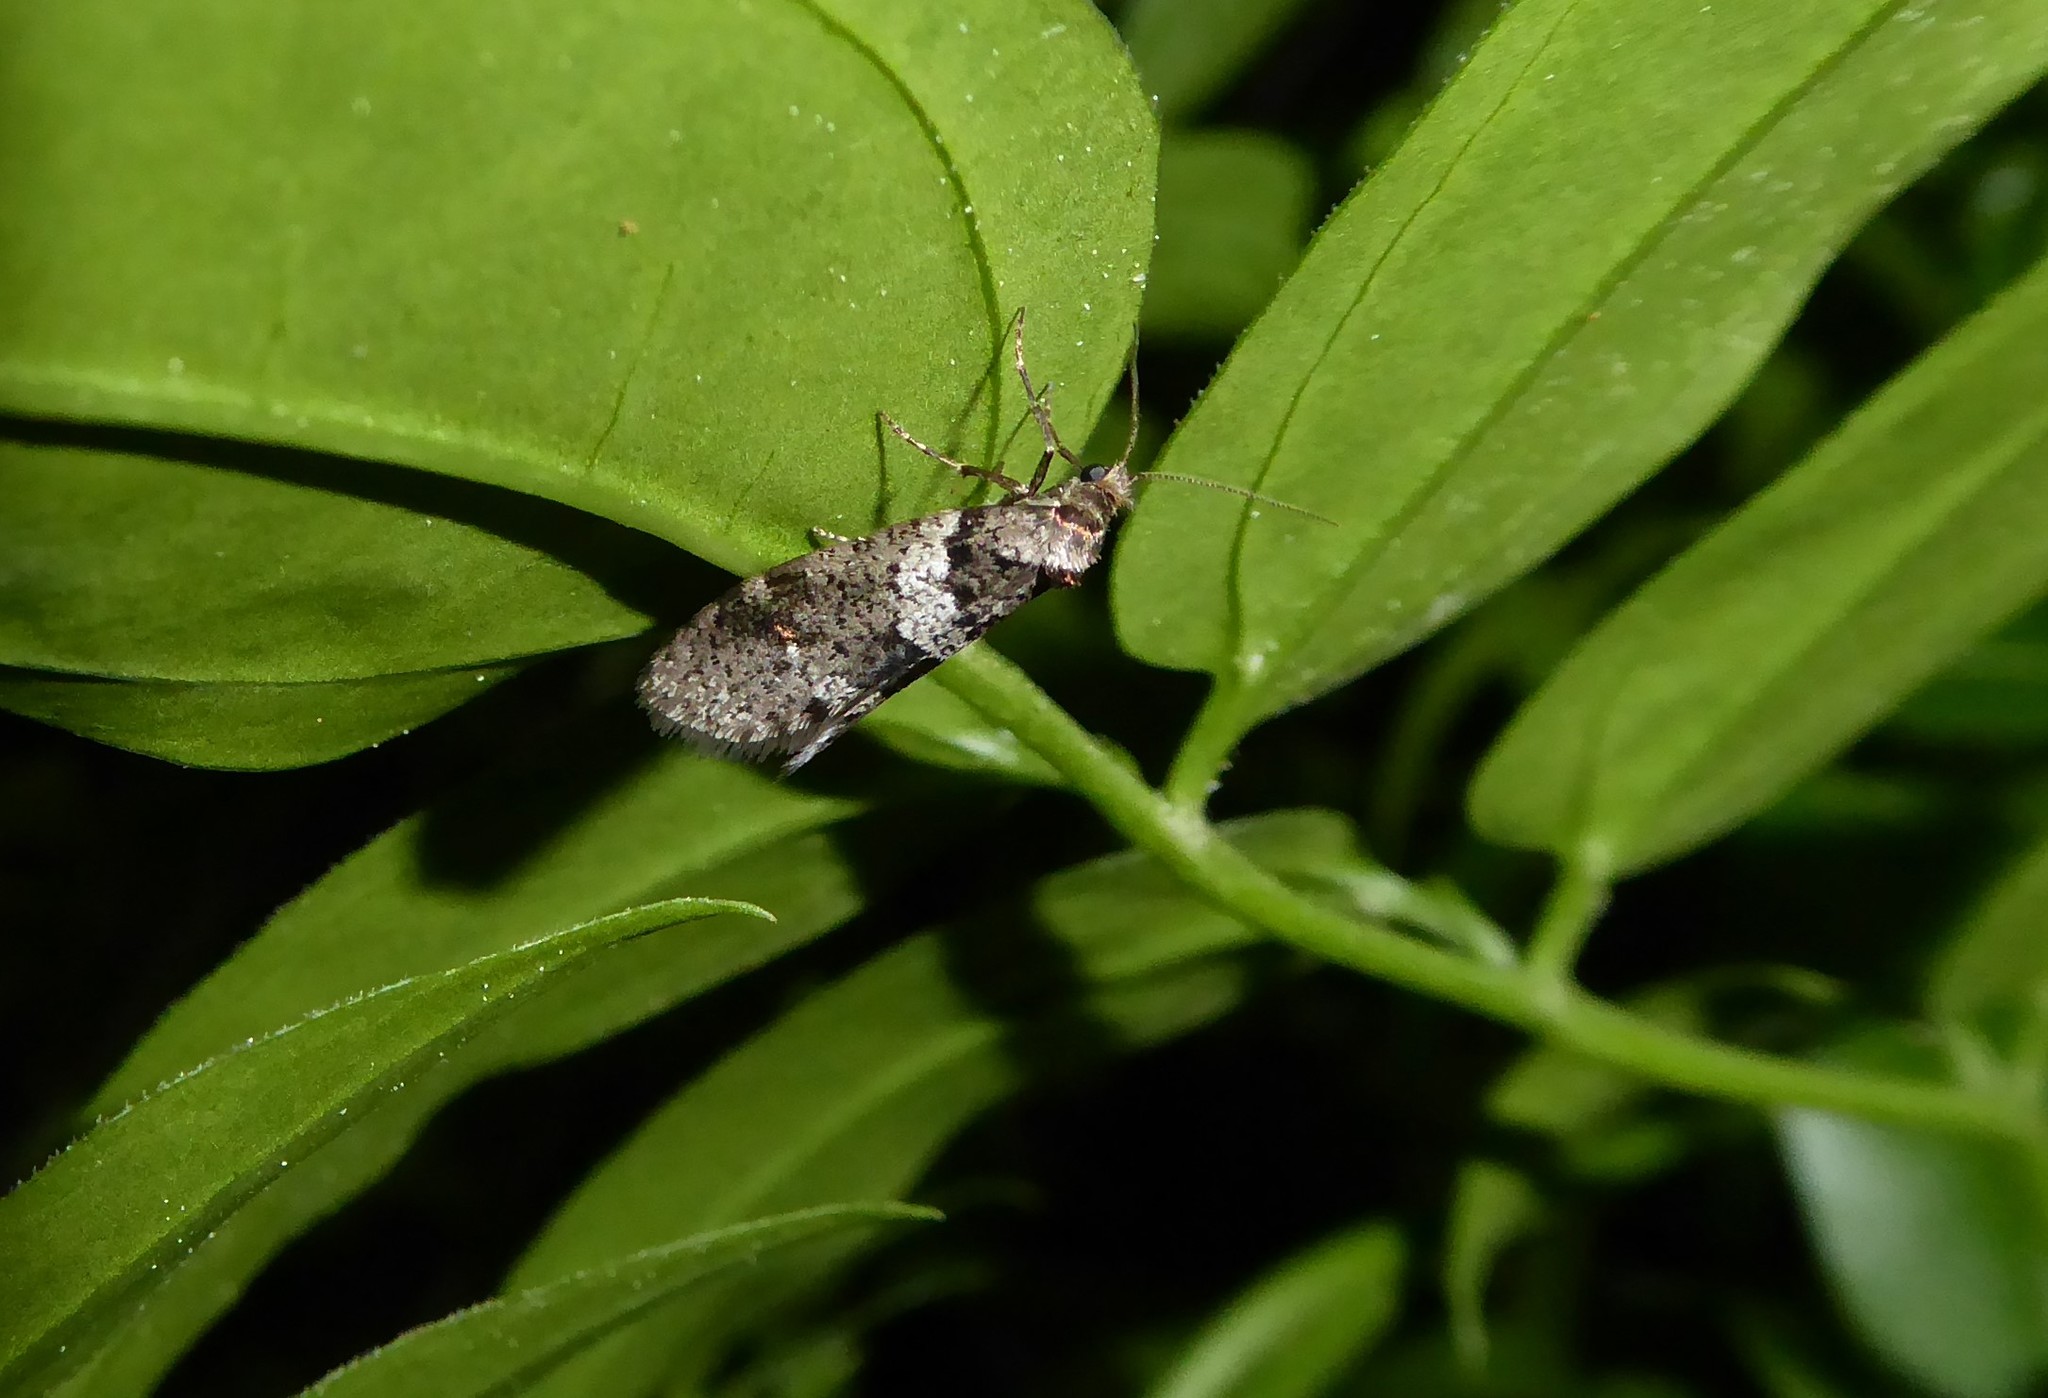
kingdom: Animalia
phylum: Arthropoda
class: Insecta
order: Lepidoptera
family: Psychidae
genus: Lepidoscia
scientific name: Lepidoscia heliochares
